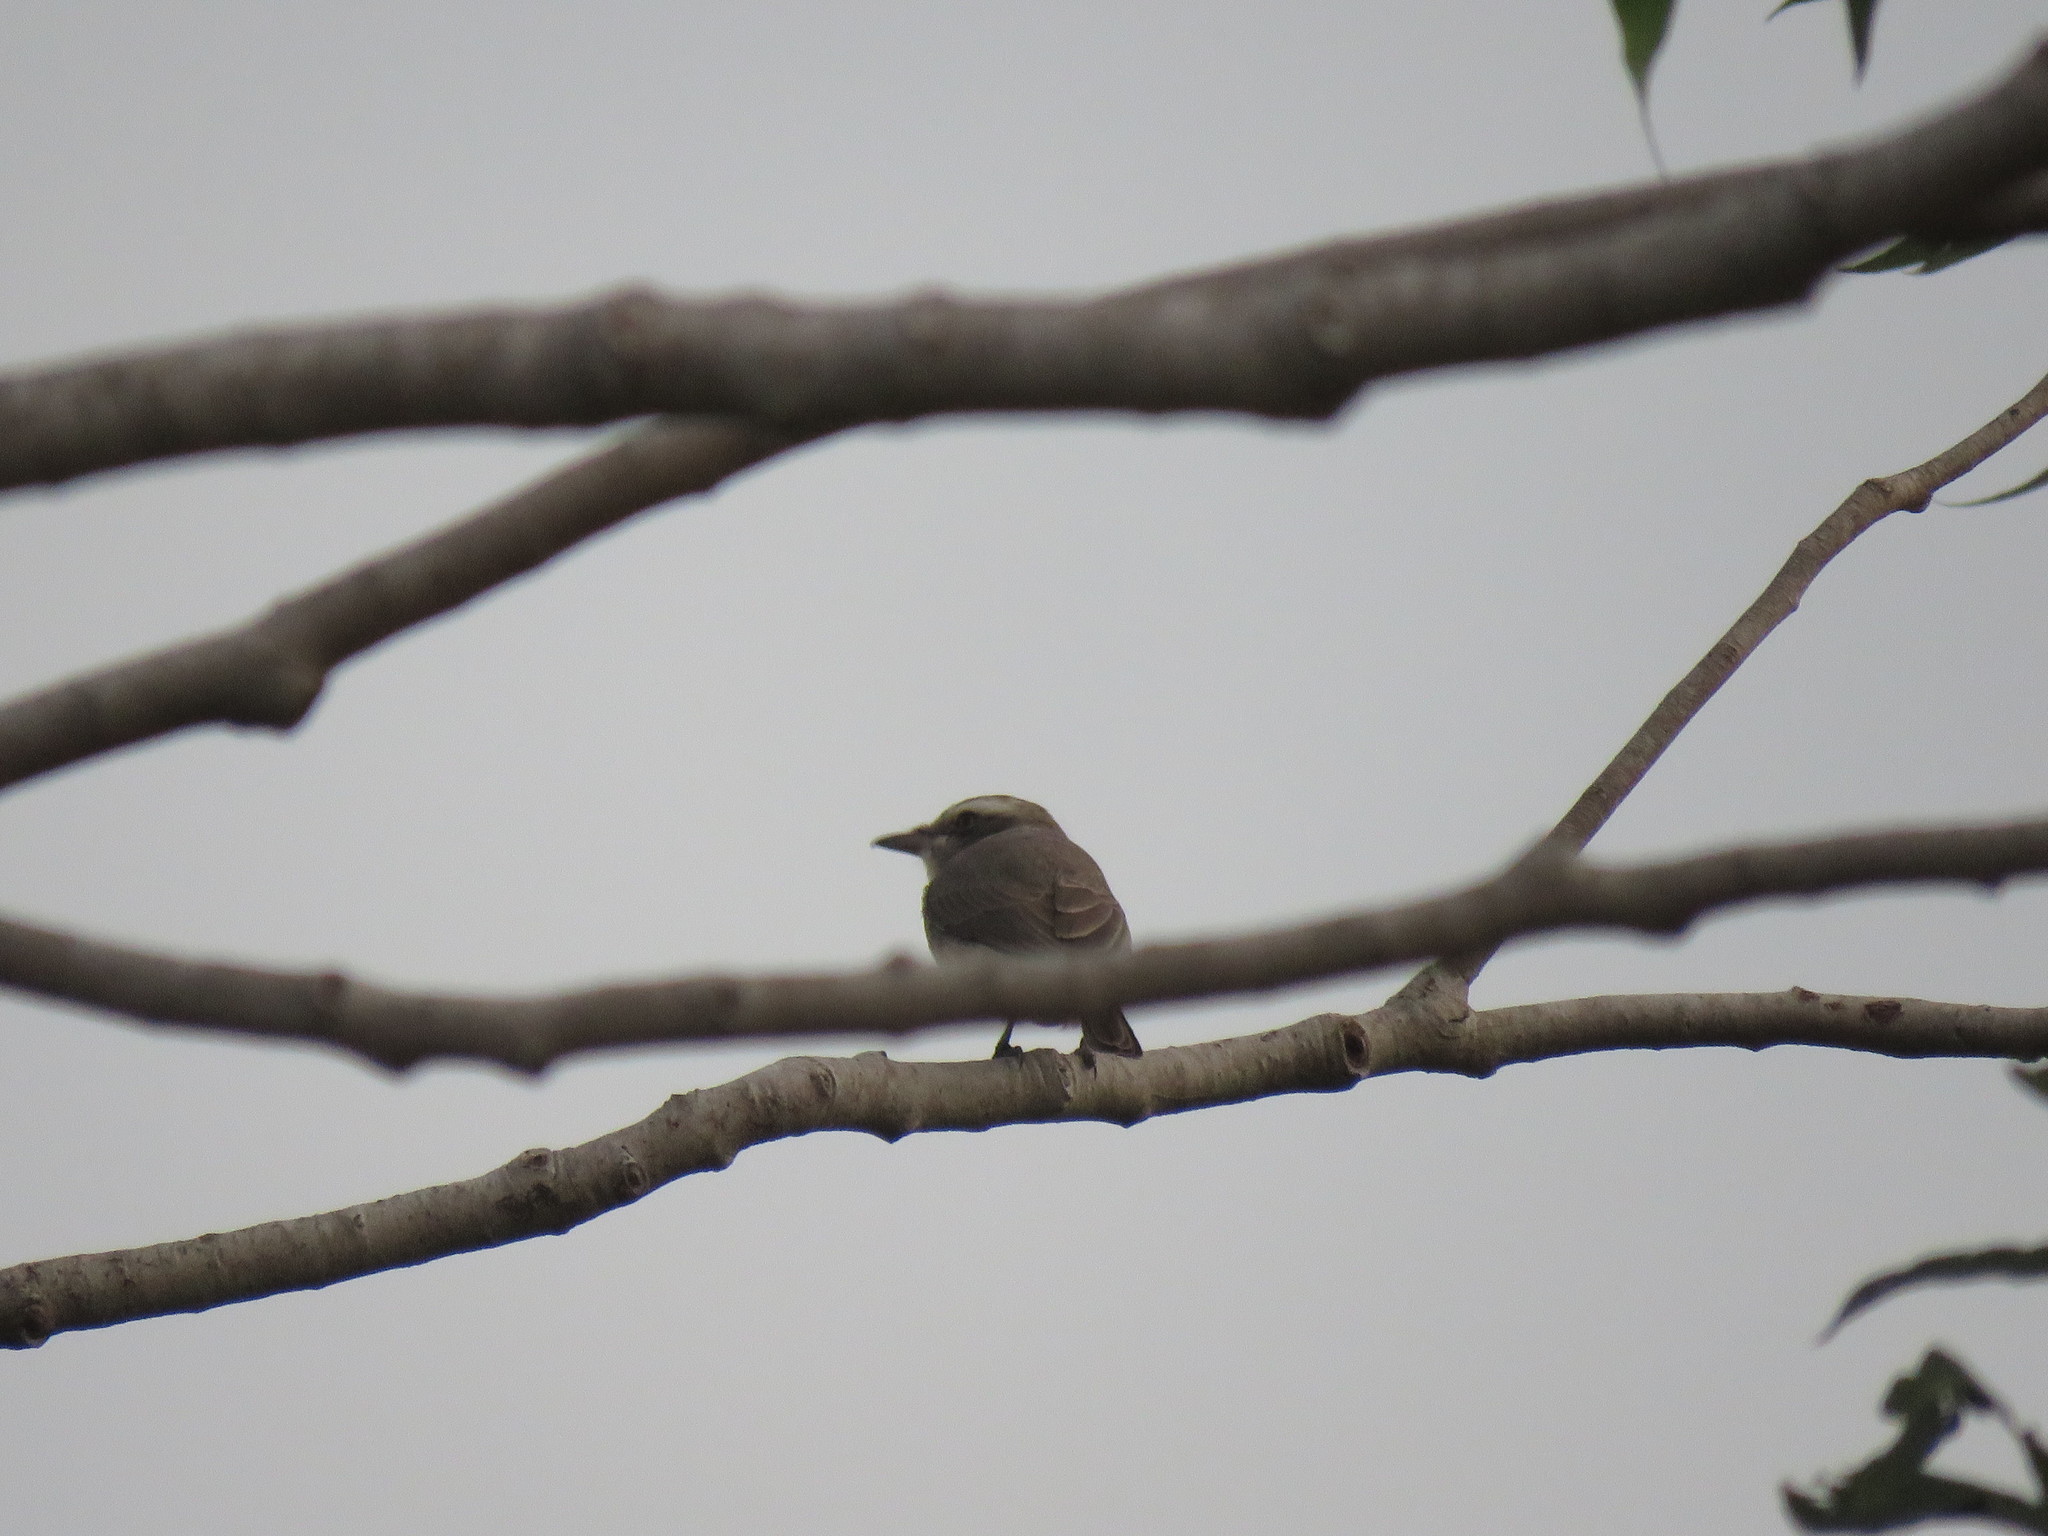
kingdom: Animalia
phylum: Chordata
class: Aves
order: Passeriformes
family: Tephrodornithidae
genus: Tephrodornis
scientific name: Tephrodornis pondicerianus
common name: Common woodshrike
